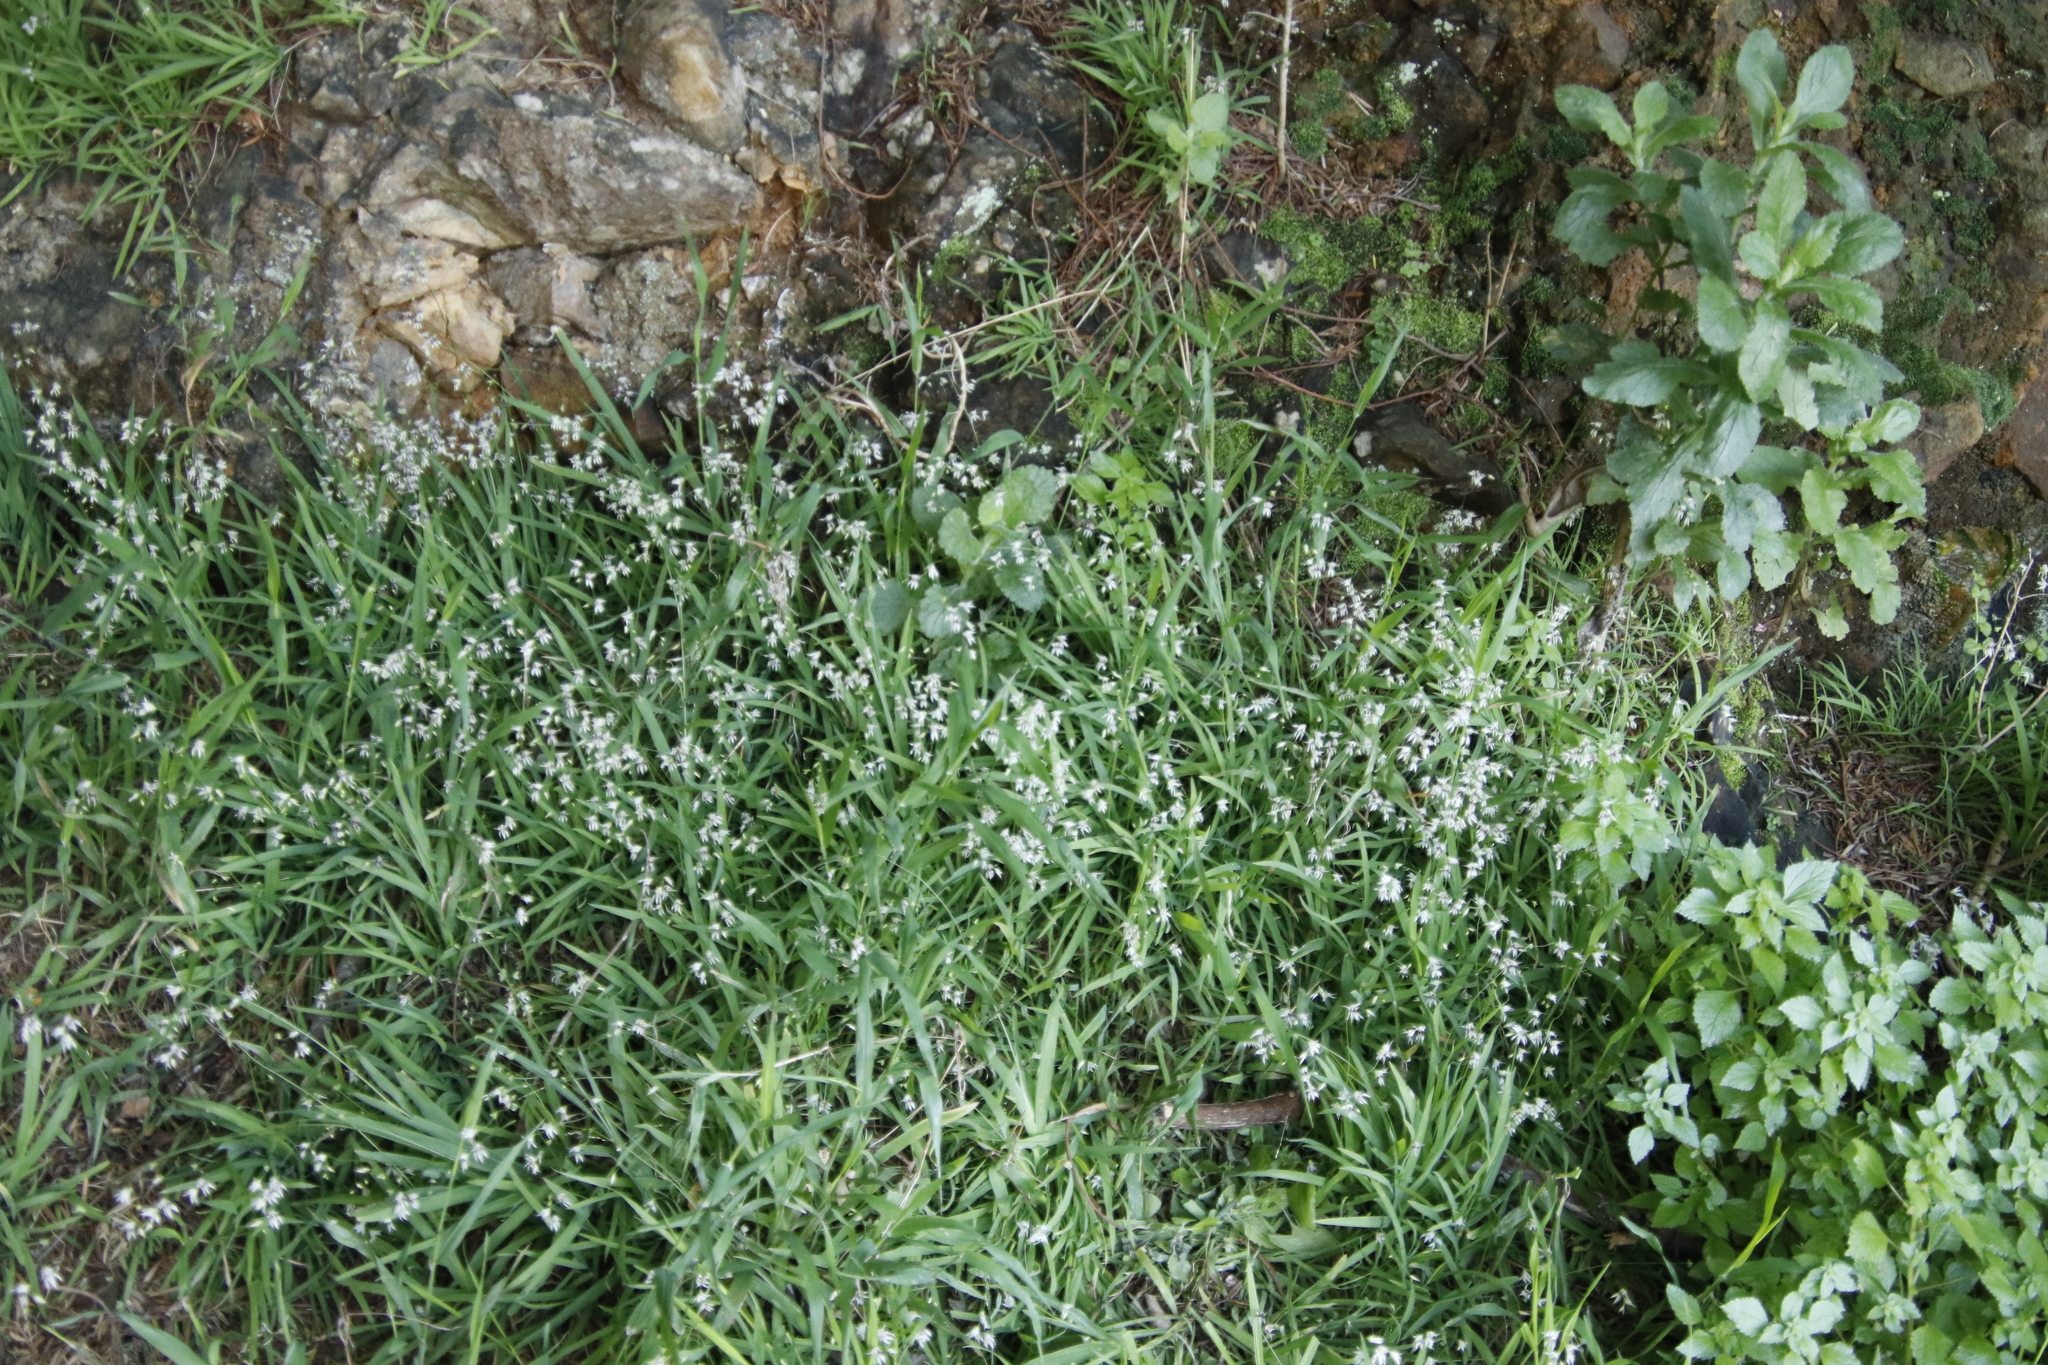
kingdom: Plantae
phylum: Tracheophyta
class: Liliopsida
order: Asparagales
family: Iridaceae
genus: Melasphaerula
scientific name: Melasphaerula graminea
